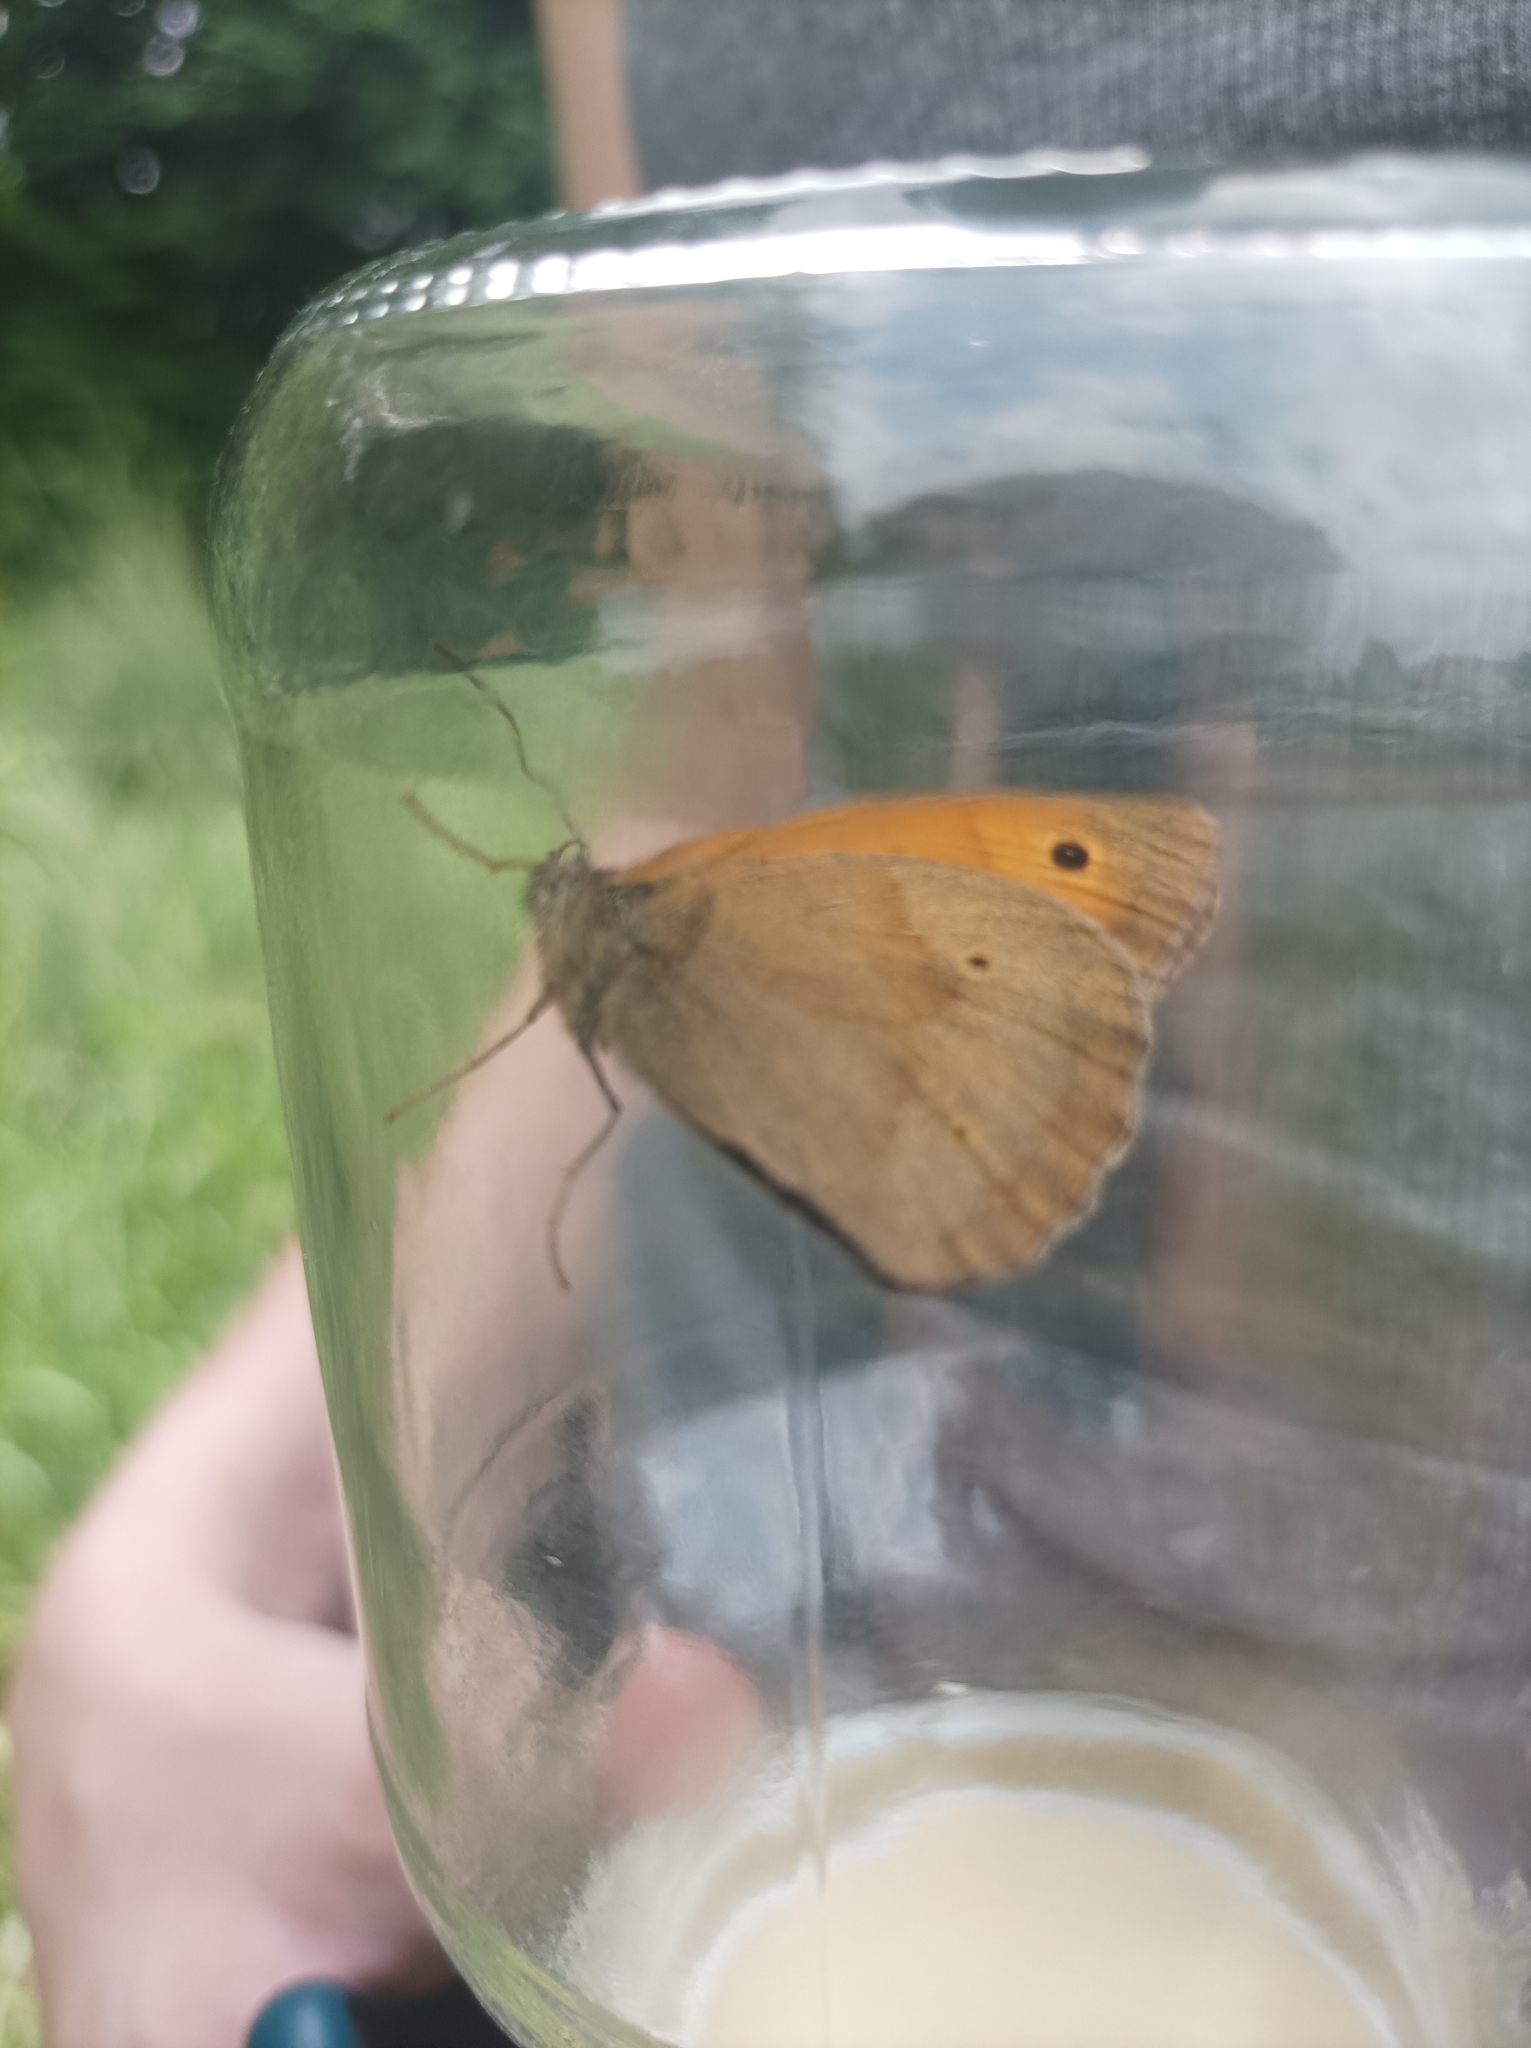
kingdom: Animalia
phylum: Arthropoda
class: Insecta
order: Lepidoptera
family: Nymphalidae
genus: Maniola
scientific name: Maniola jurtina
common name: Meadow brown
